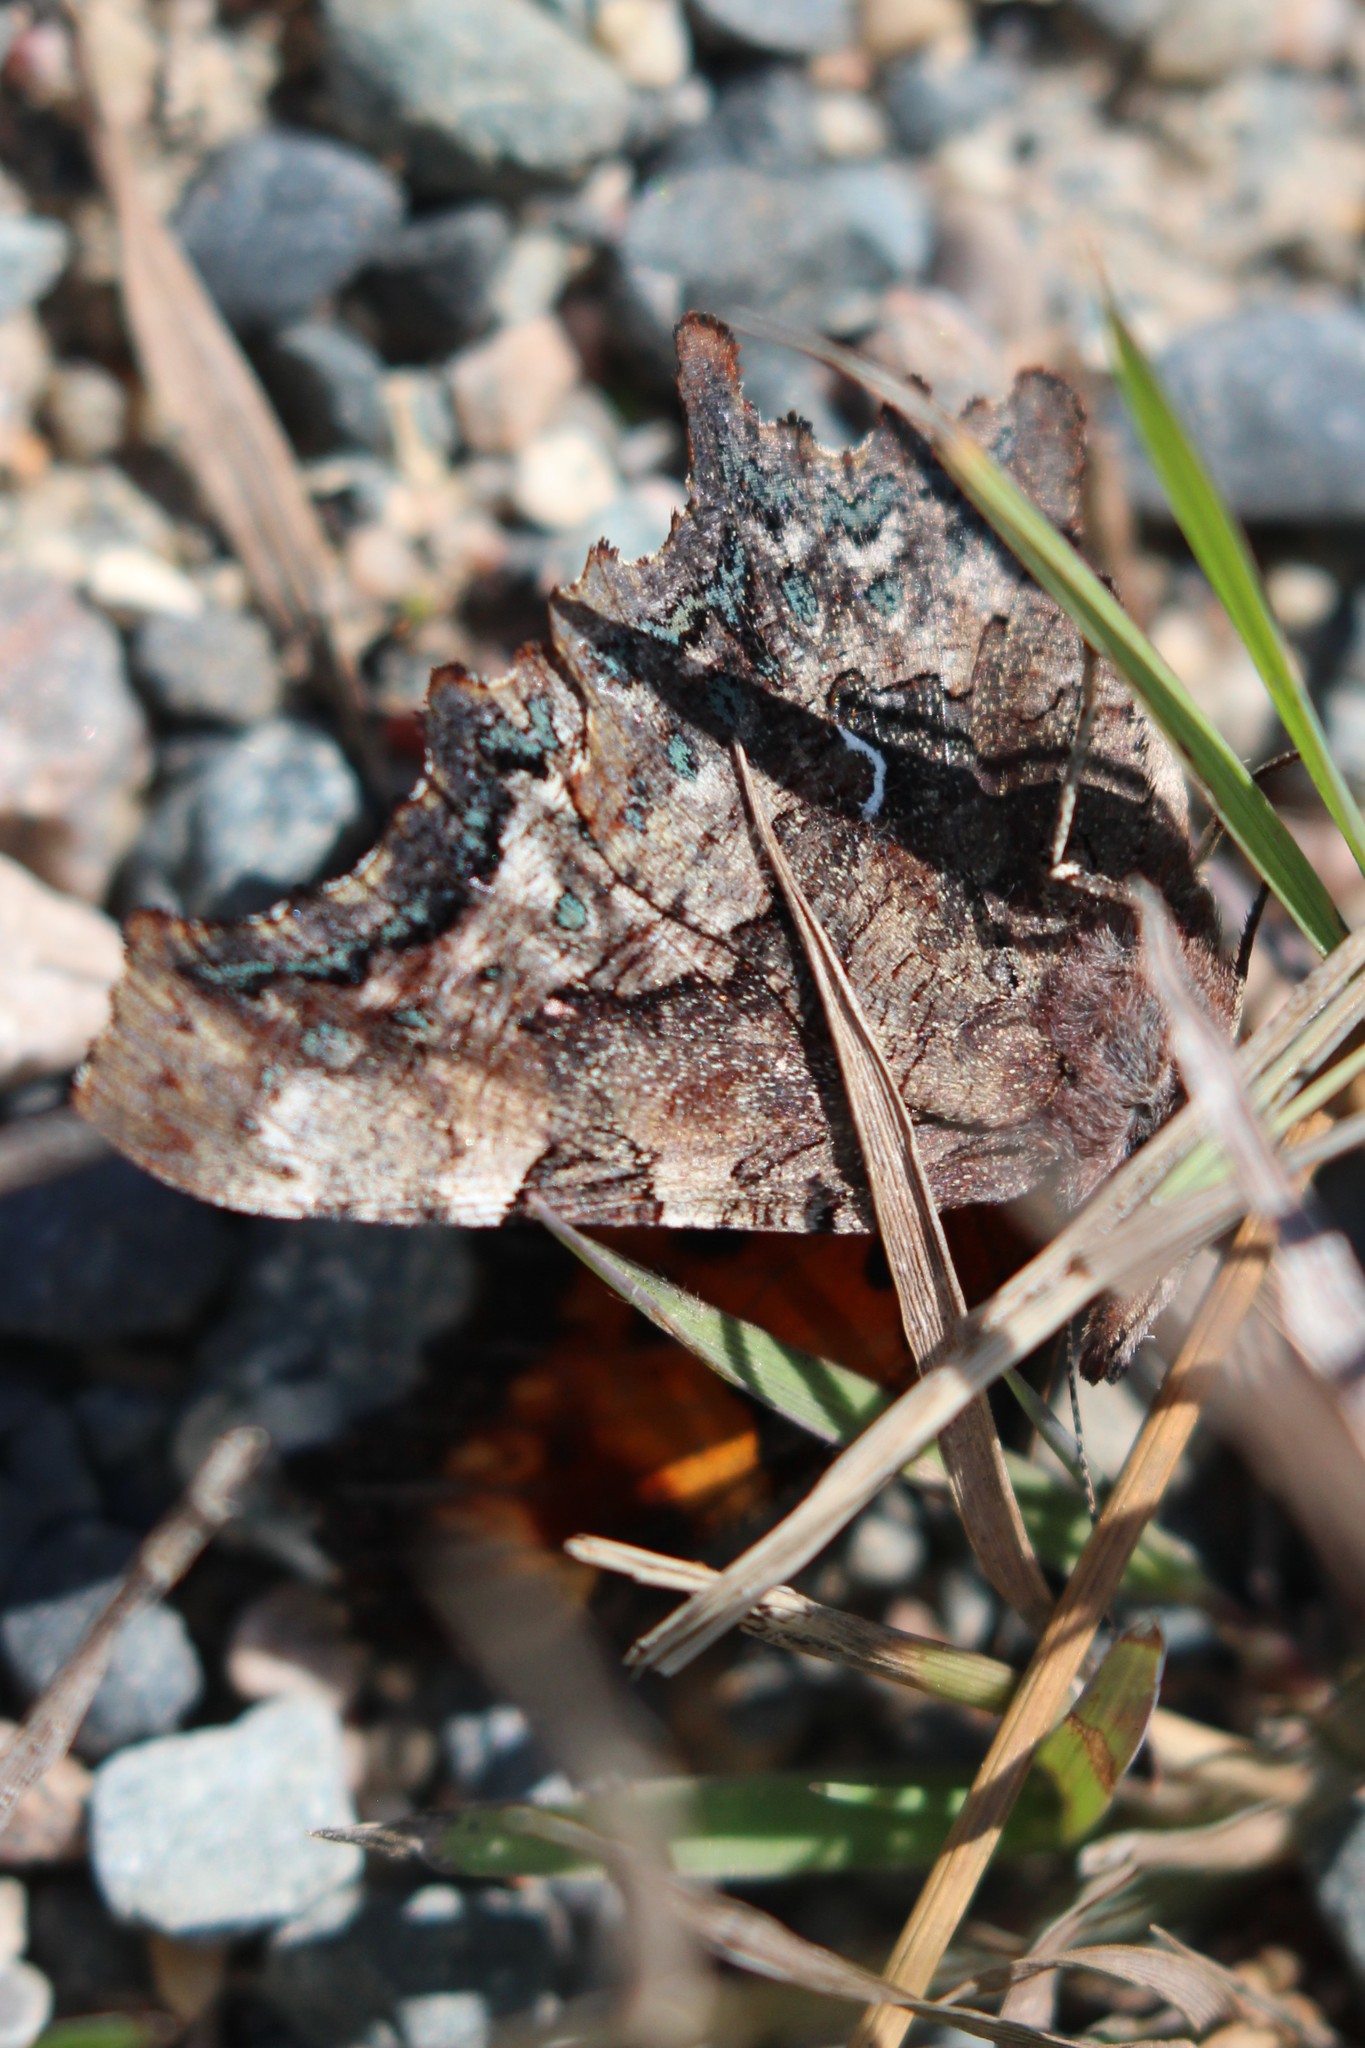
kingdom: Animalia
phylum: Arthropoda
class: Insecta
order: Lepidoptera
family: Nymphalidae
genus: Polygonia
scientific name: Polygonia faunus
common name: Green comma
